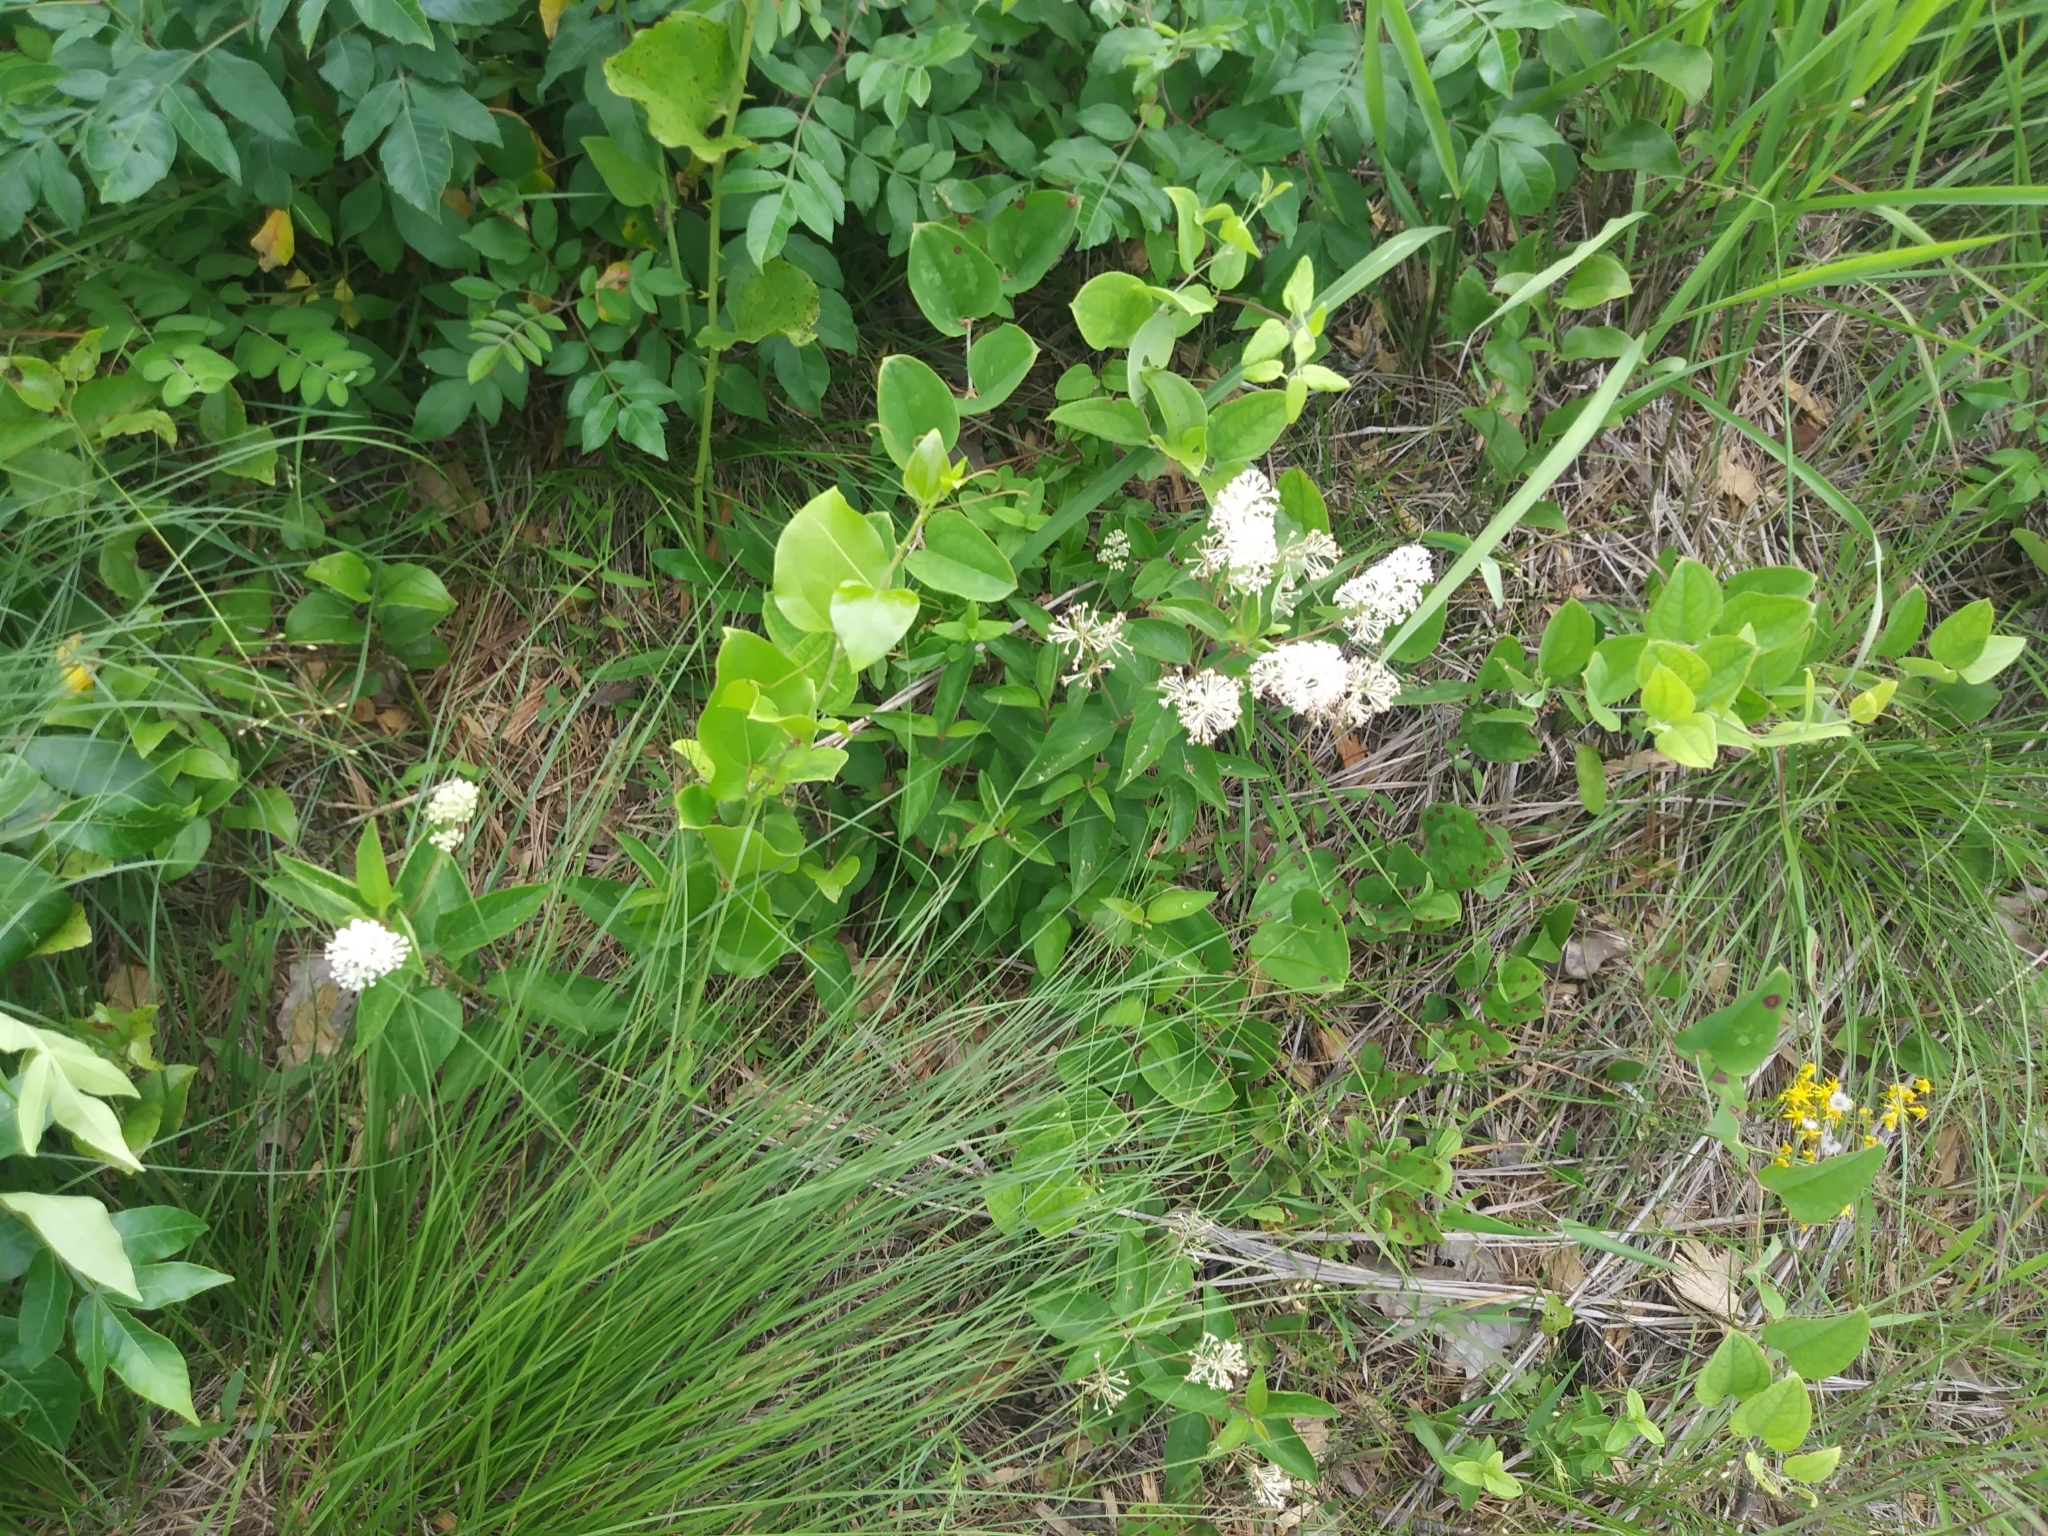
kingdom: Plantae
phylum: Tracheophyta
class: Magnoliopsida
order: Rosales
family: Rhamnaceae
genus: Ceanothus
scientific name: Ceanothus americanus
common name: Redroot
